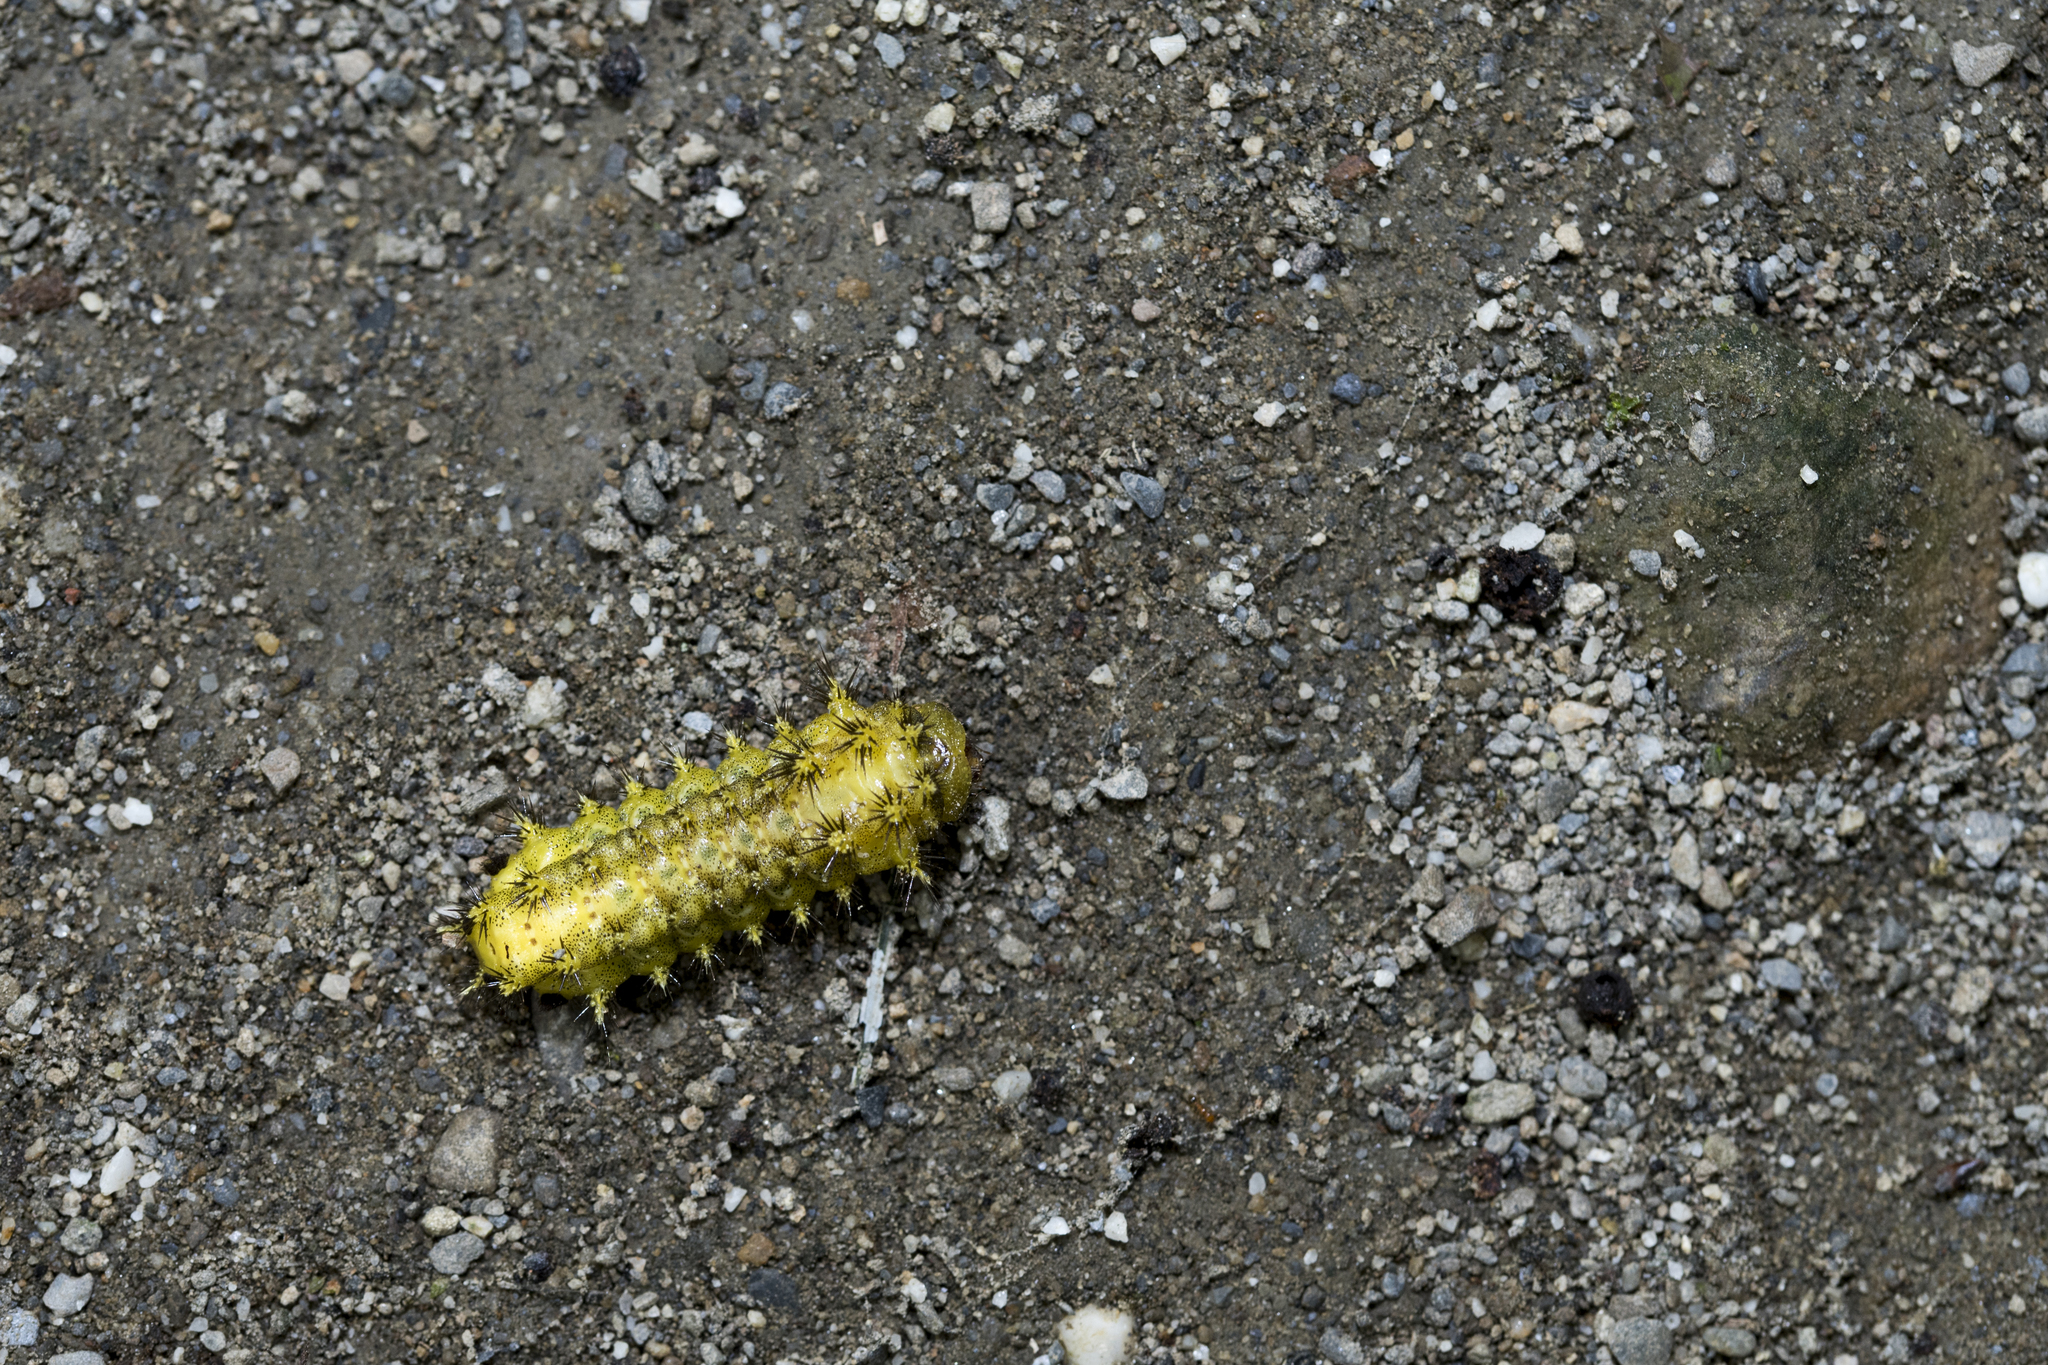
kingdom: Animalia
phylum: Arthropoda
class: Insecta
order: Lepidoptera
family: Limacodidae
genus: Scopelodes
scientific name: Scopelodes contracta
